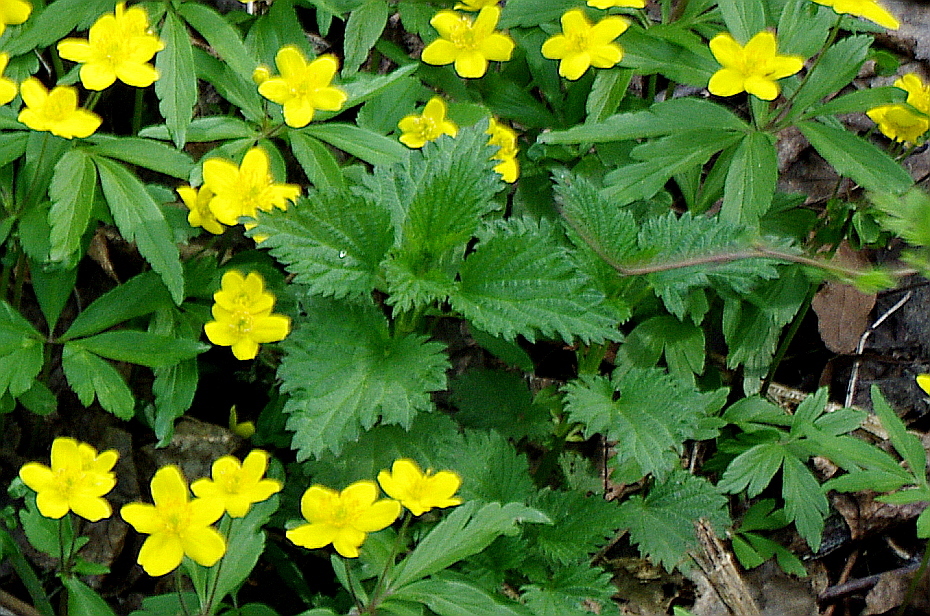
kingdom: Plantae
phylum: Tracheophyta
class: Magnoliopsida
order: Rosales
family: Urticaceae
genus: Urtica
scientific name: Urtica dioica
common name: Common nettle
